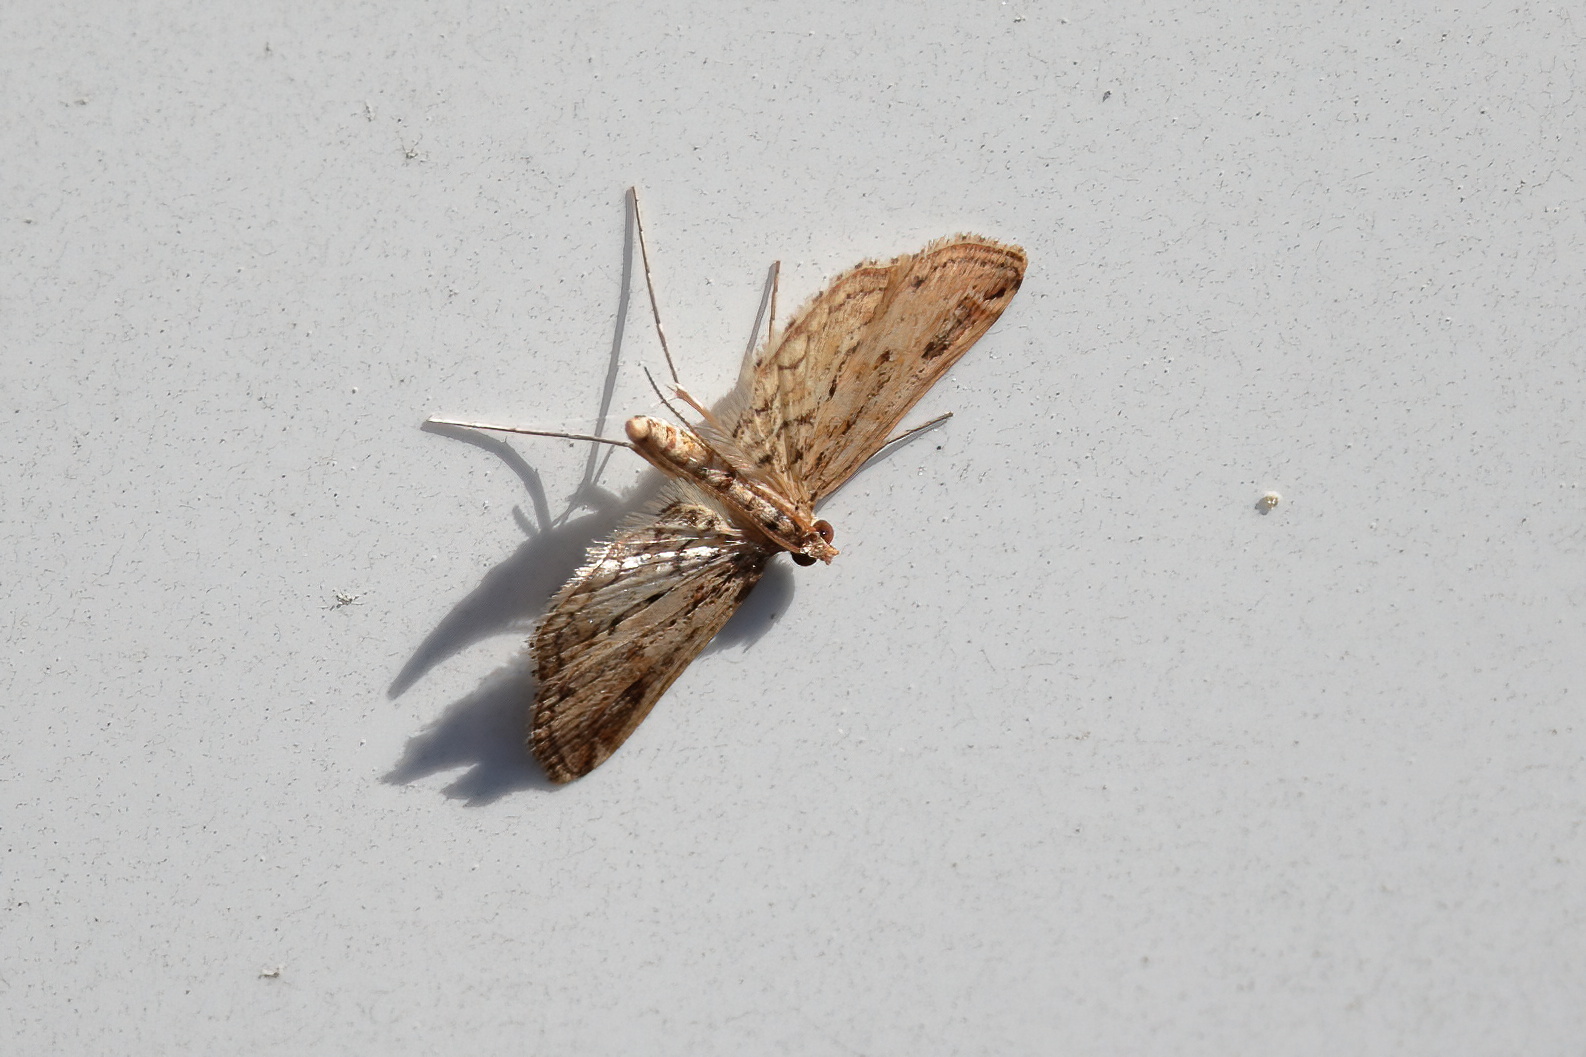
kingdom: Animalia
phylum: Arthropoda
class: Insecta
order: Lepidoptera
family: Crambidae
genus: Parapoynx
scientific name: Parapoynx allionealis
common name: Bladderwort casemaker
